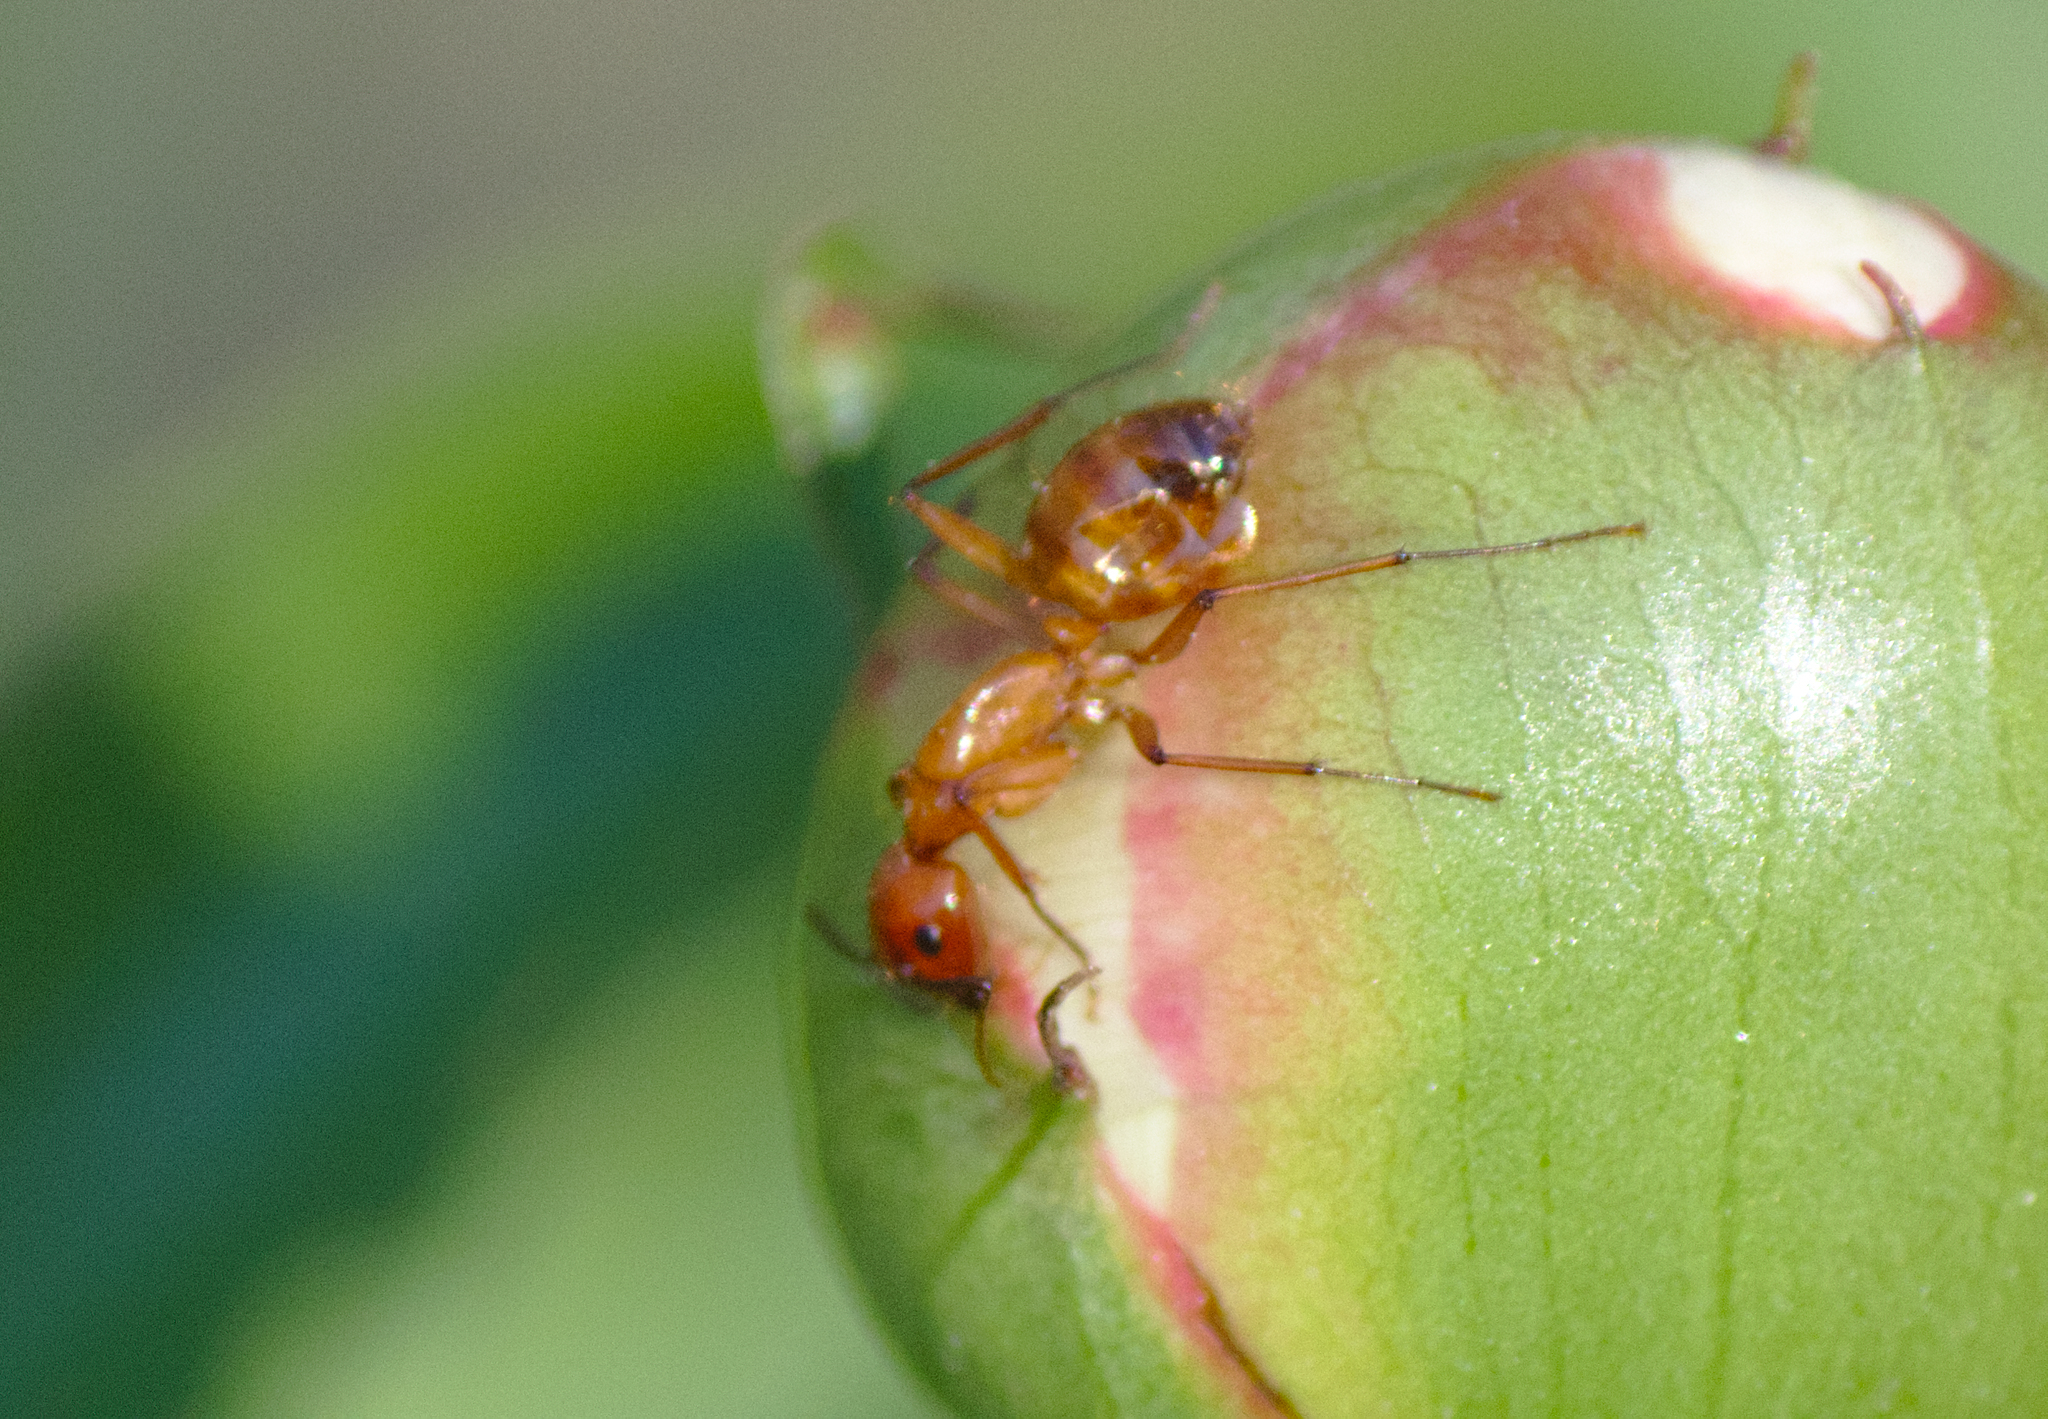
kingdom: Animalia
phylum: Arthropoda
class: Insecta
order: Hymenoptera
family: Formicidae
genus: Camponotus
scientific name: Camponotus castaneus
